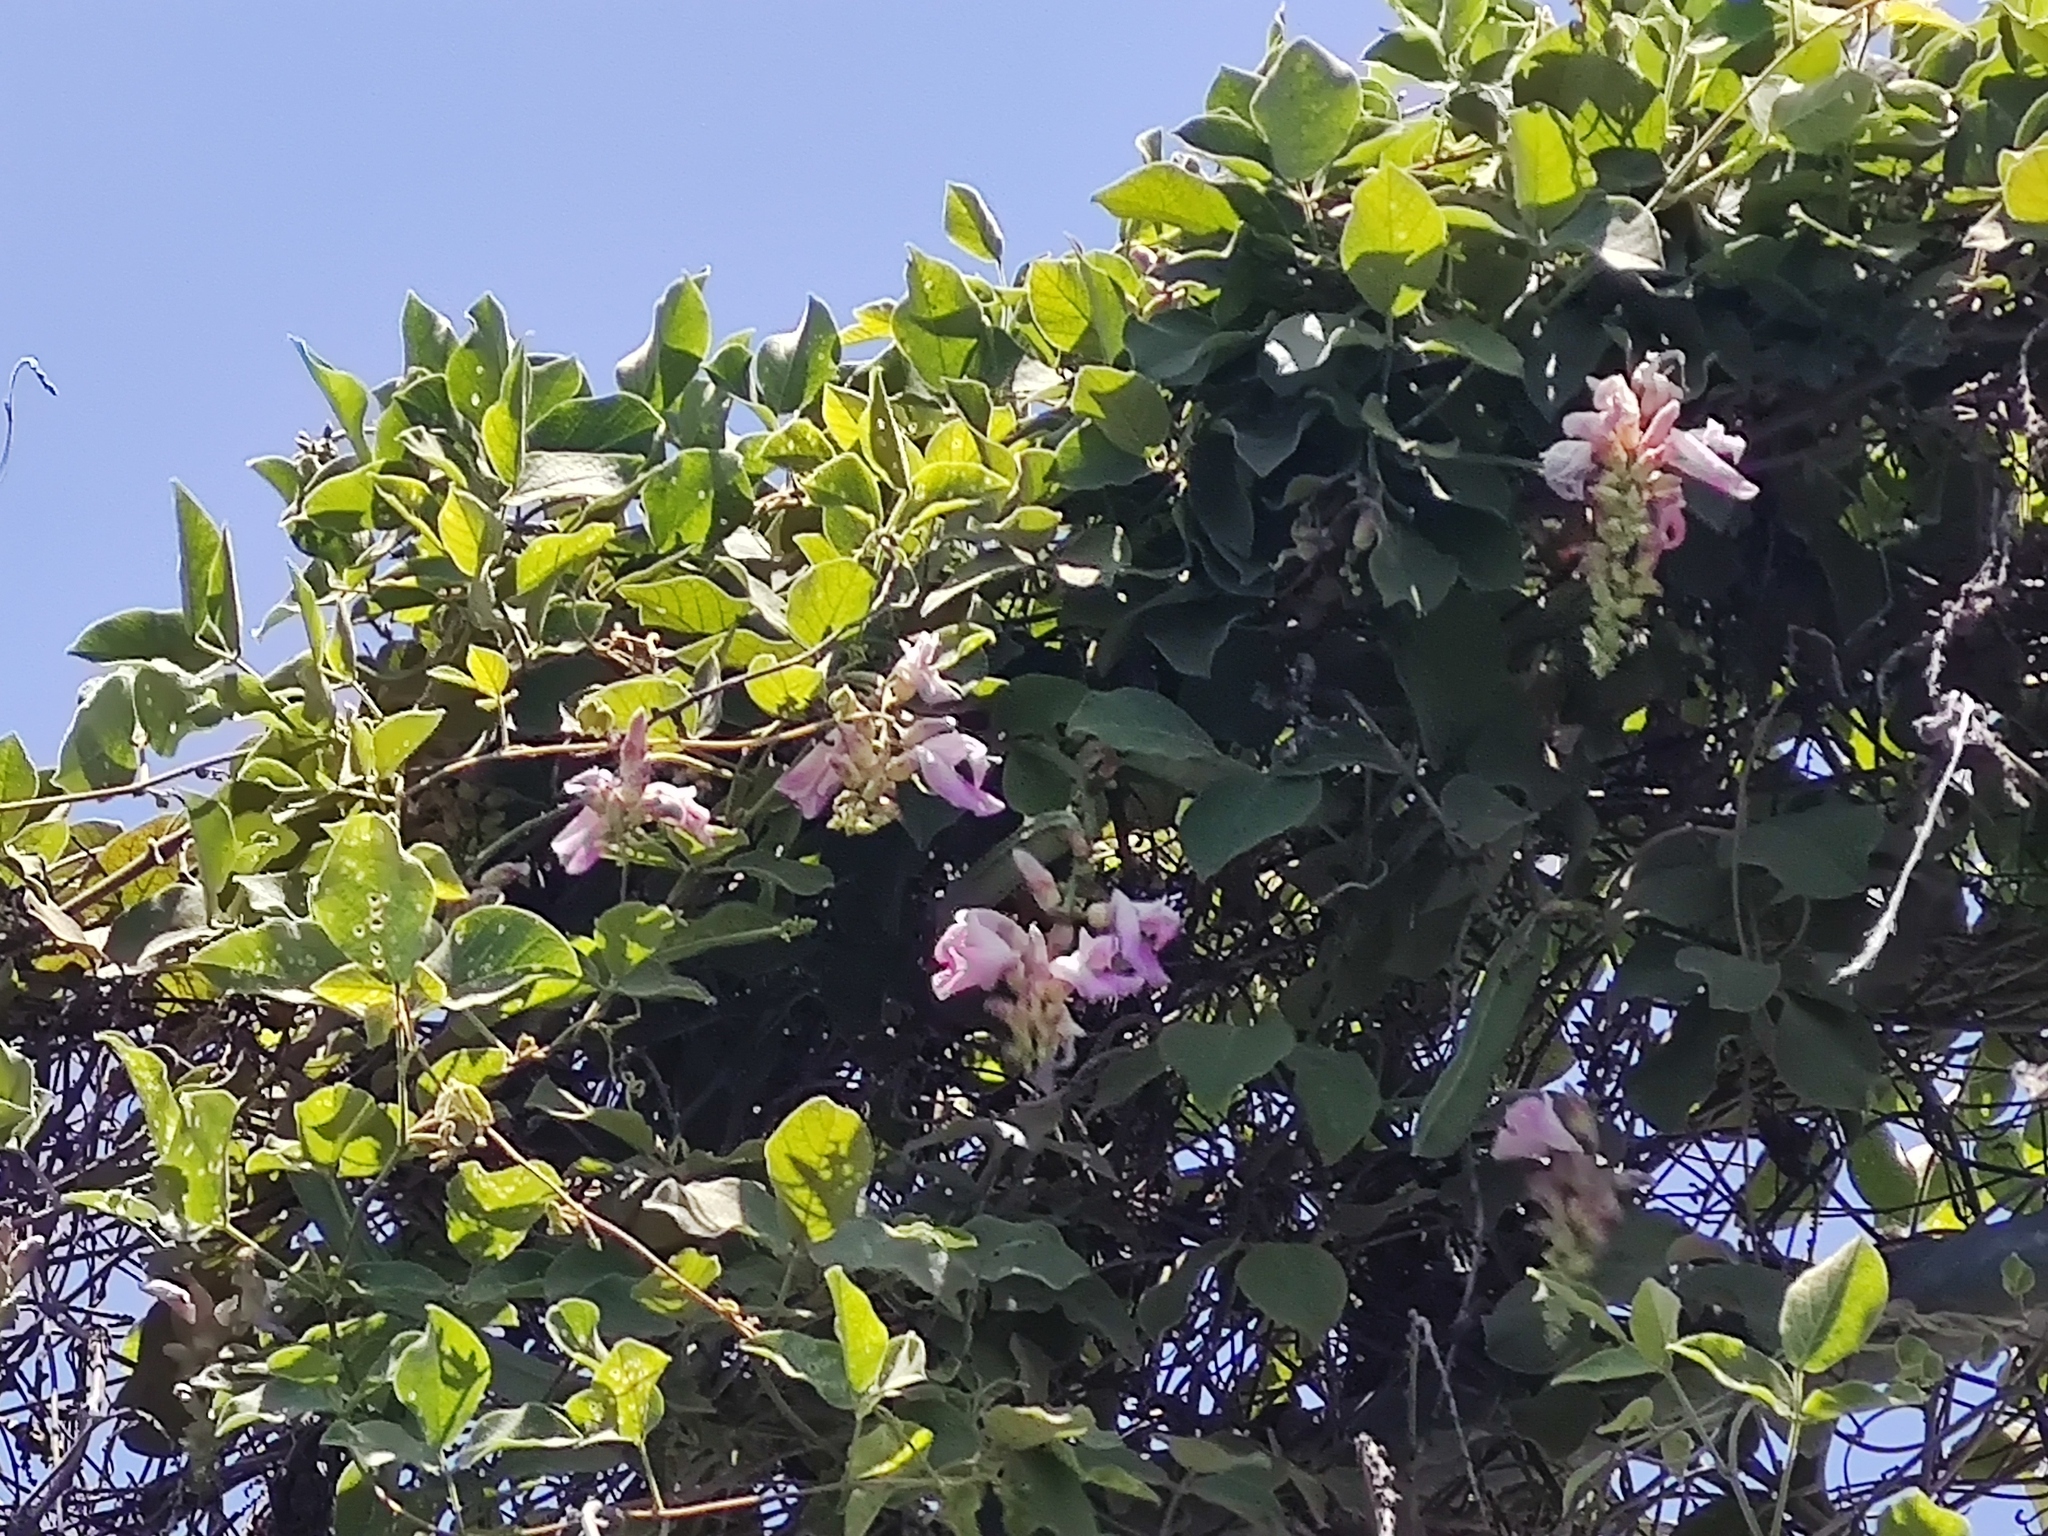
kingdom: Plantae
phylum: Tracheophyta
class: Magnoliopsida
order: Fabales
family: Fabaceae
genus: Canavalia
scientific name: Canavalia septentrionalis
